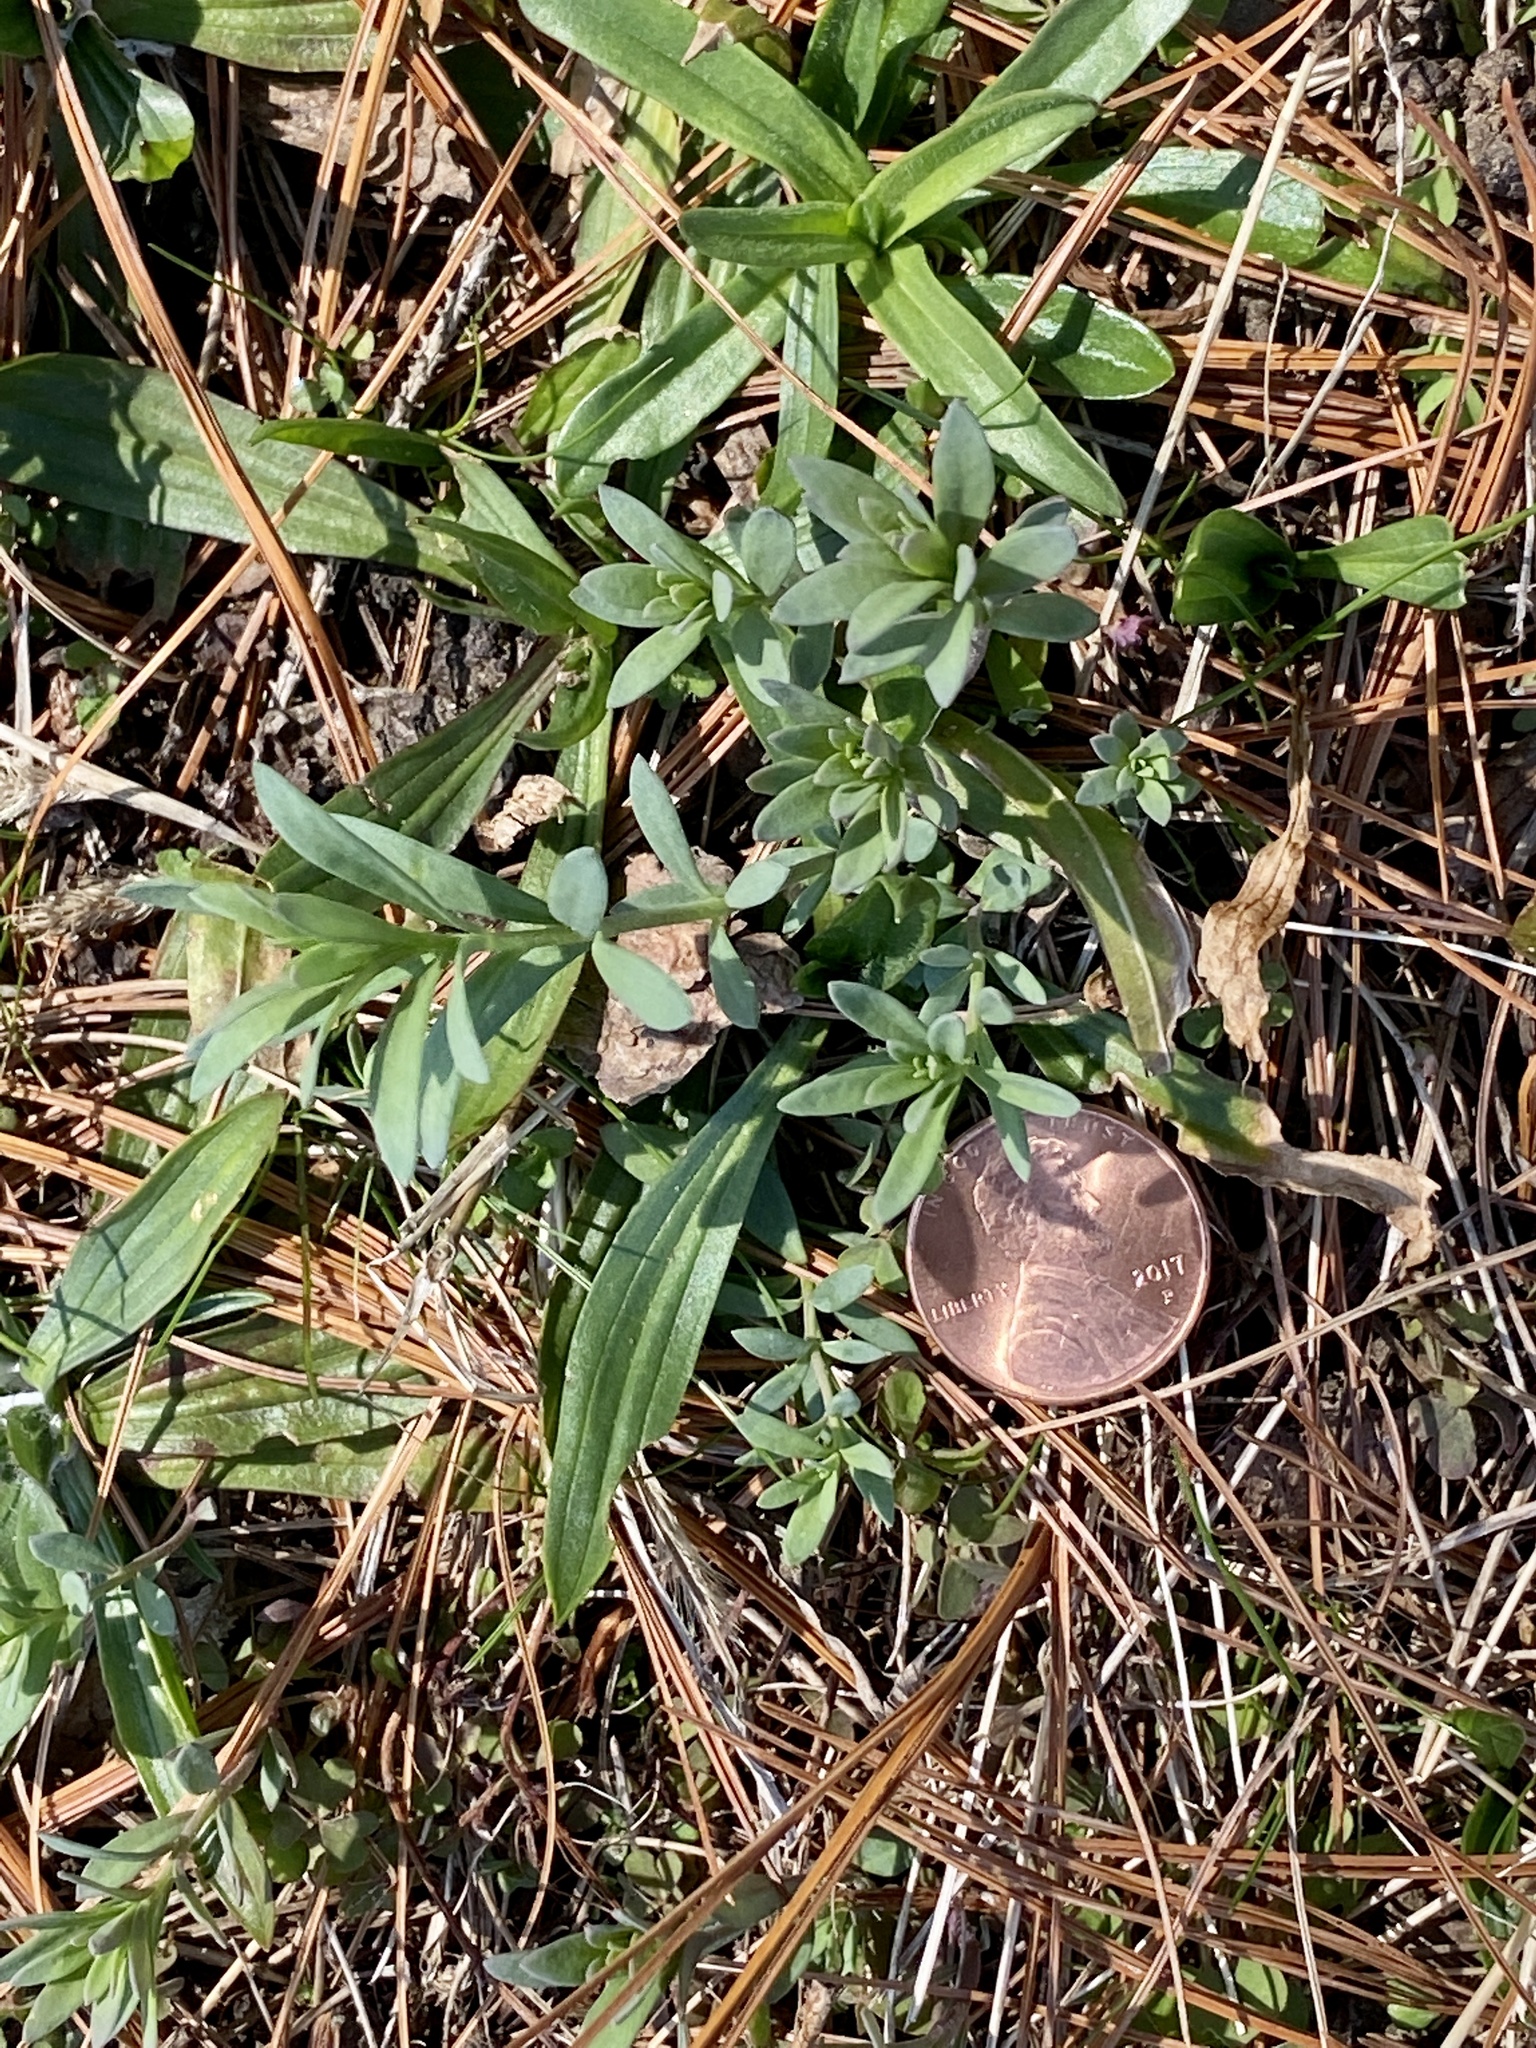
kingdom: Plantae
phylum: Tracheophyta
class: Magnoliopsida
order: Lamiales
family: Plantaginaceae
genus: Linaria
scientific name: Linaria vulgaris
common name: Butter and eggs
